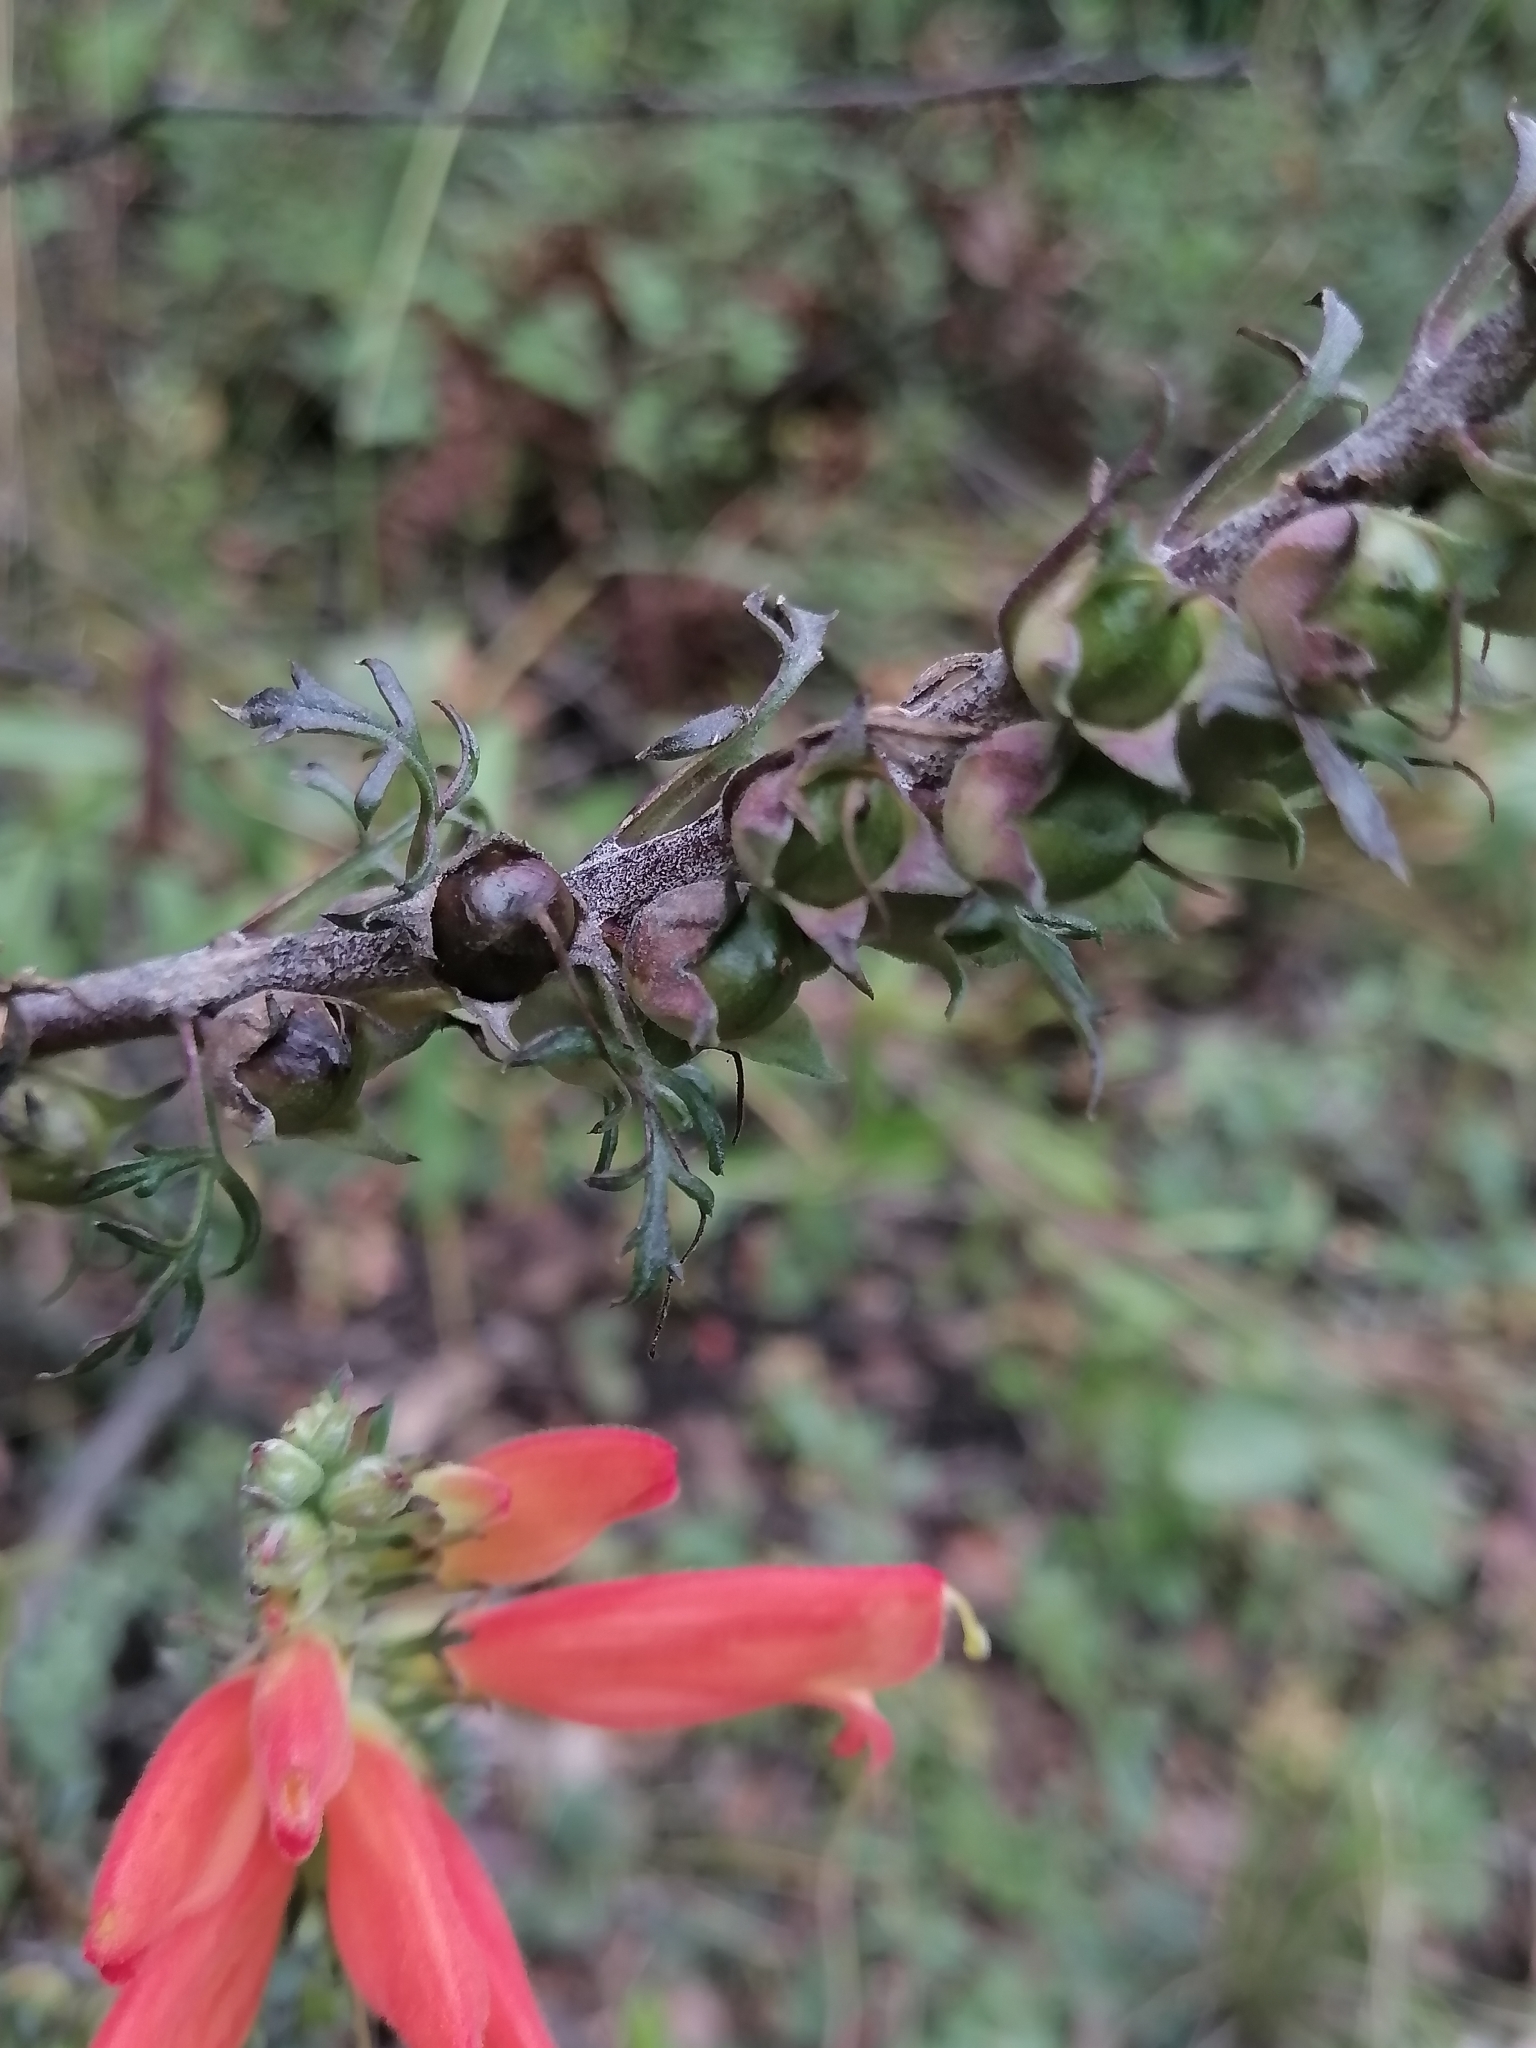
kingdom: Plantae
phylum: Tracheophyta
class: Magnoliopsida
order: Lamiales
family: Orobanchaceae
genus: Lamourouxia
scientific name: Lamourouxia multifida
